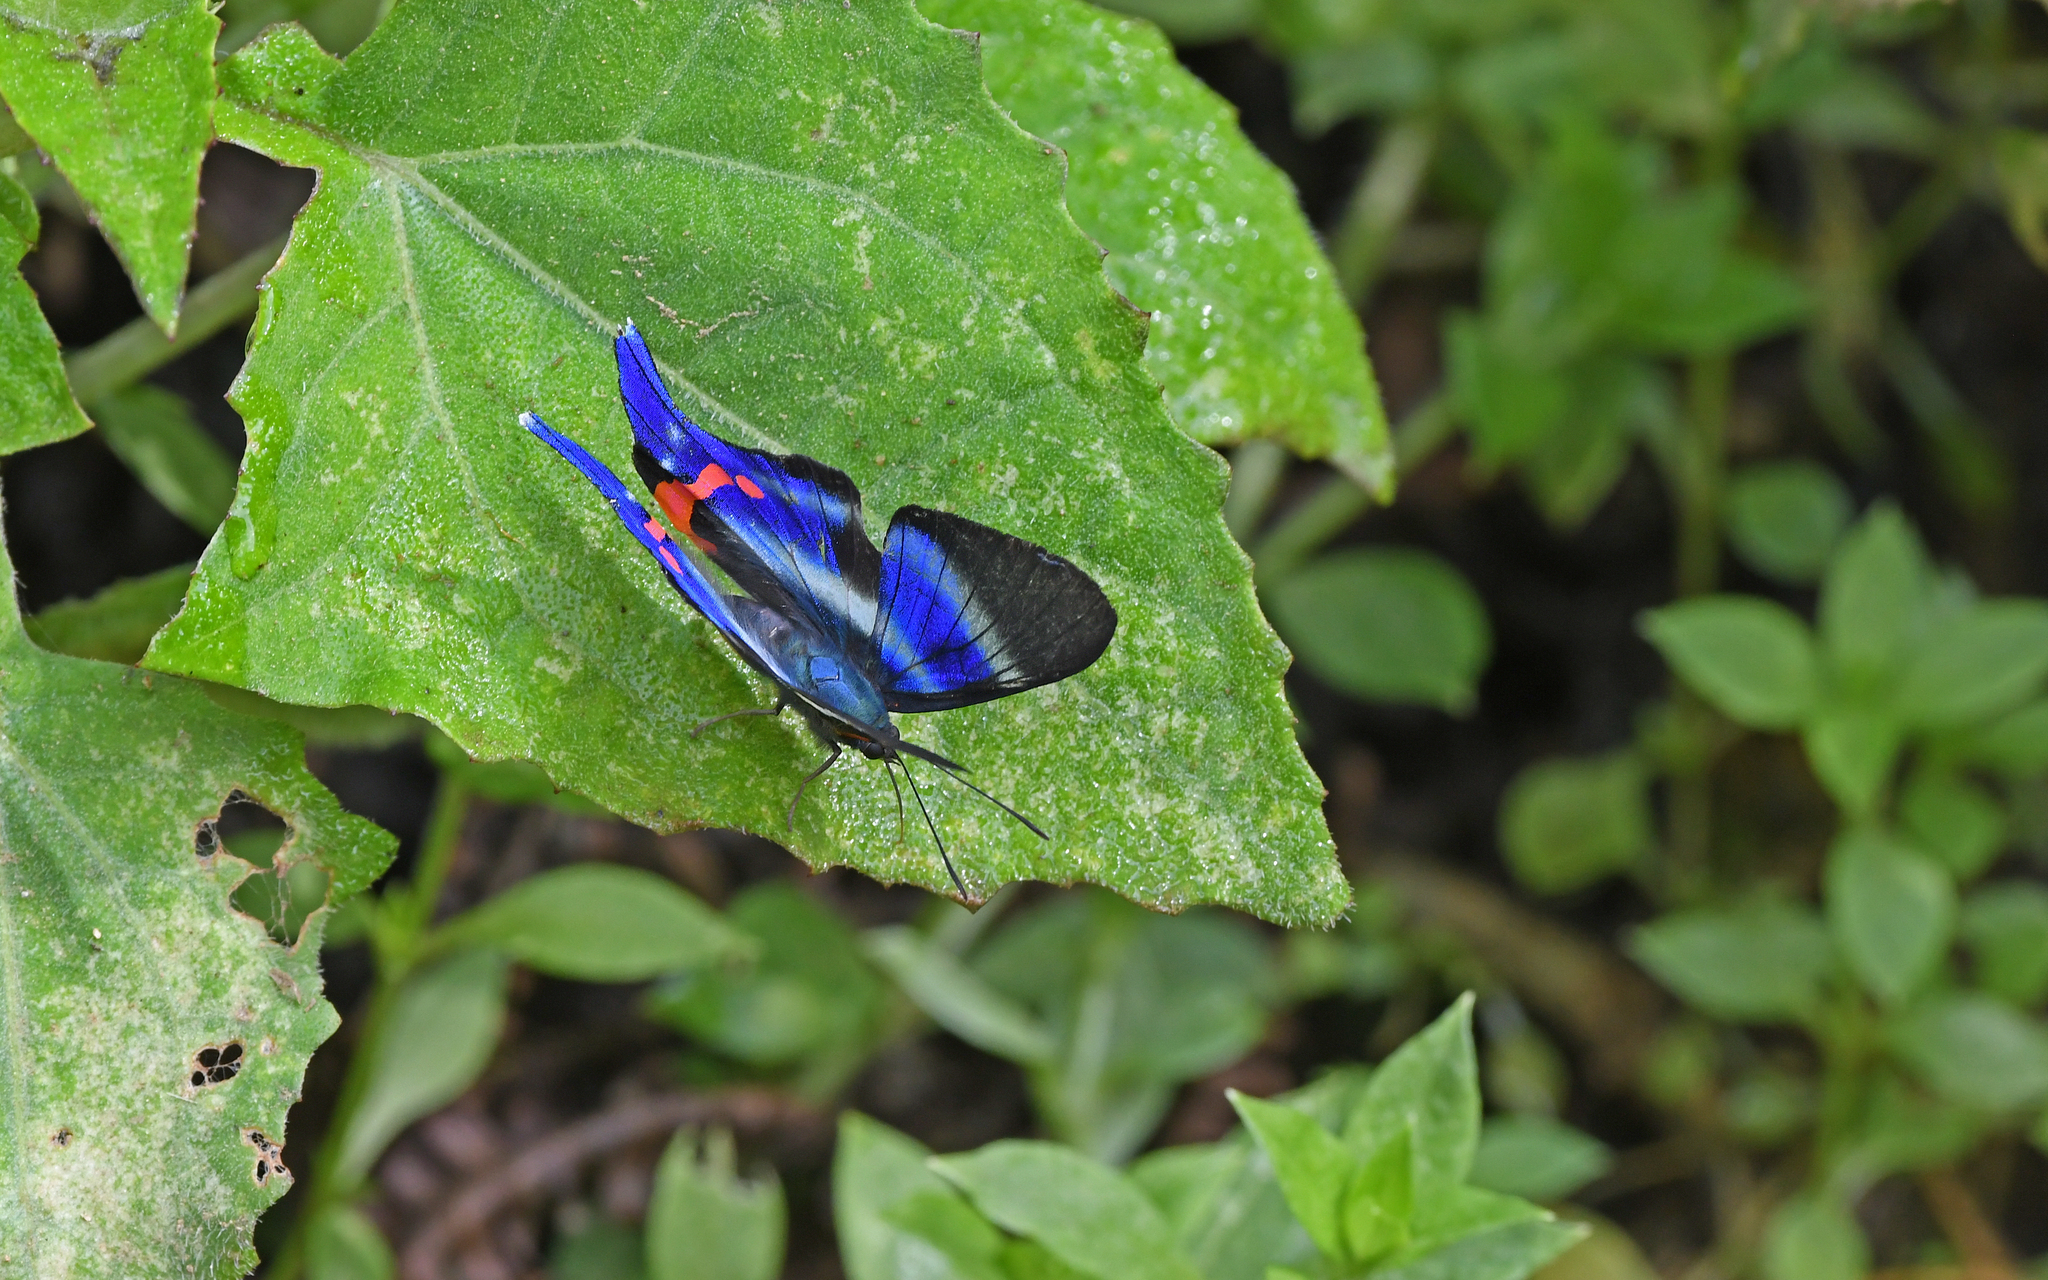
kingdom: Animalia
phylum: Arthropoda
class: Insecta
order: Lepidoptera
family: Riodinidae
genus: Rhetus
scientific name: Rhetus dysonii
